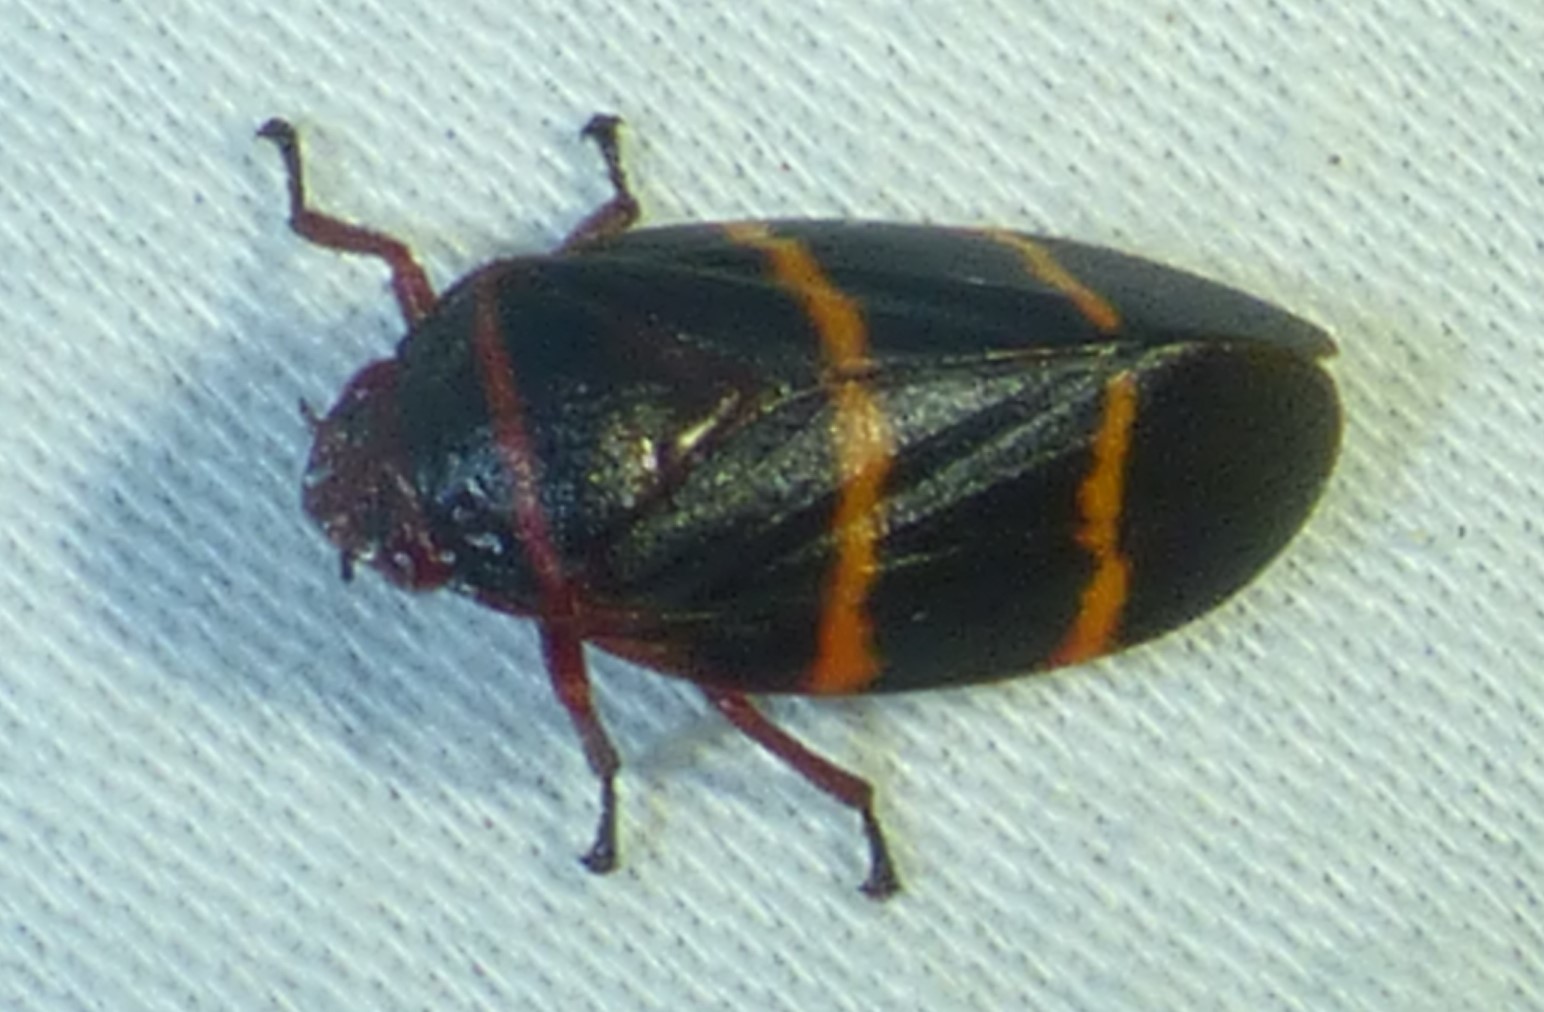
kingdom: Animalia
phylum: Arthropoda
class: Insecta
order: Hemiptera
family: Cercopidae
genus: Prosapia
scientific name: Prosapia bicincta
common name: Twolined spittlebug
